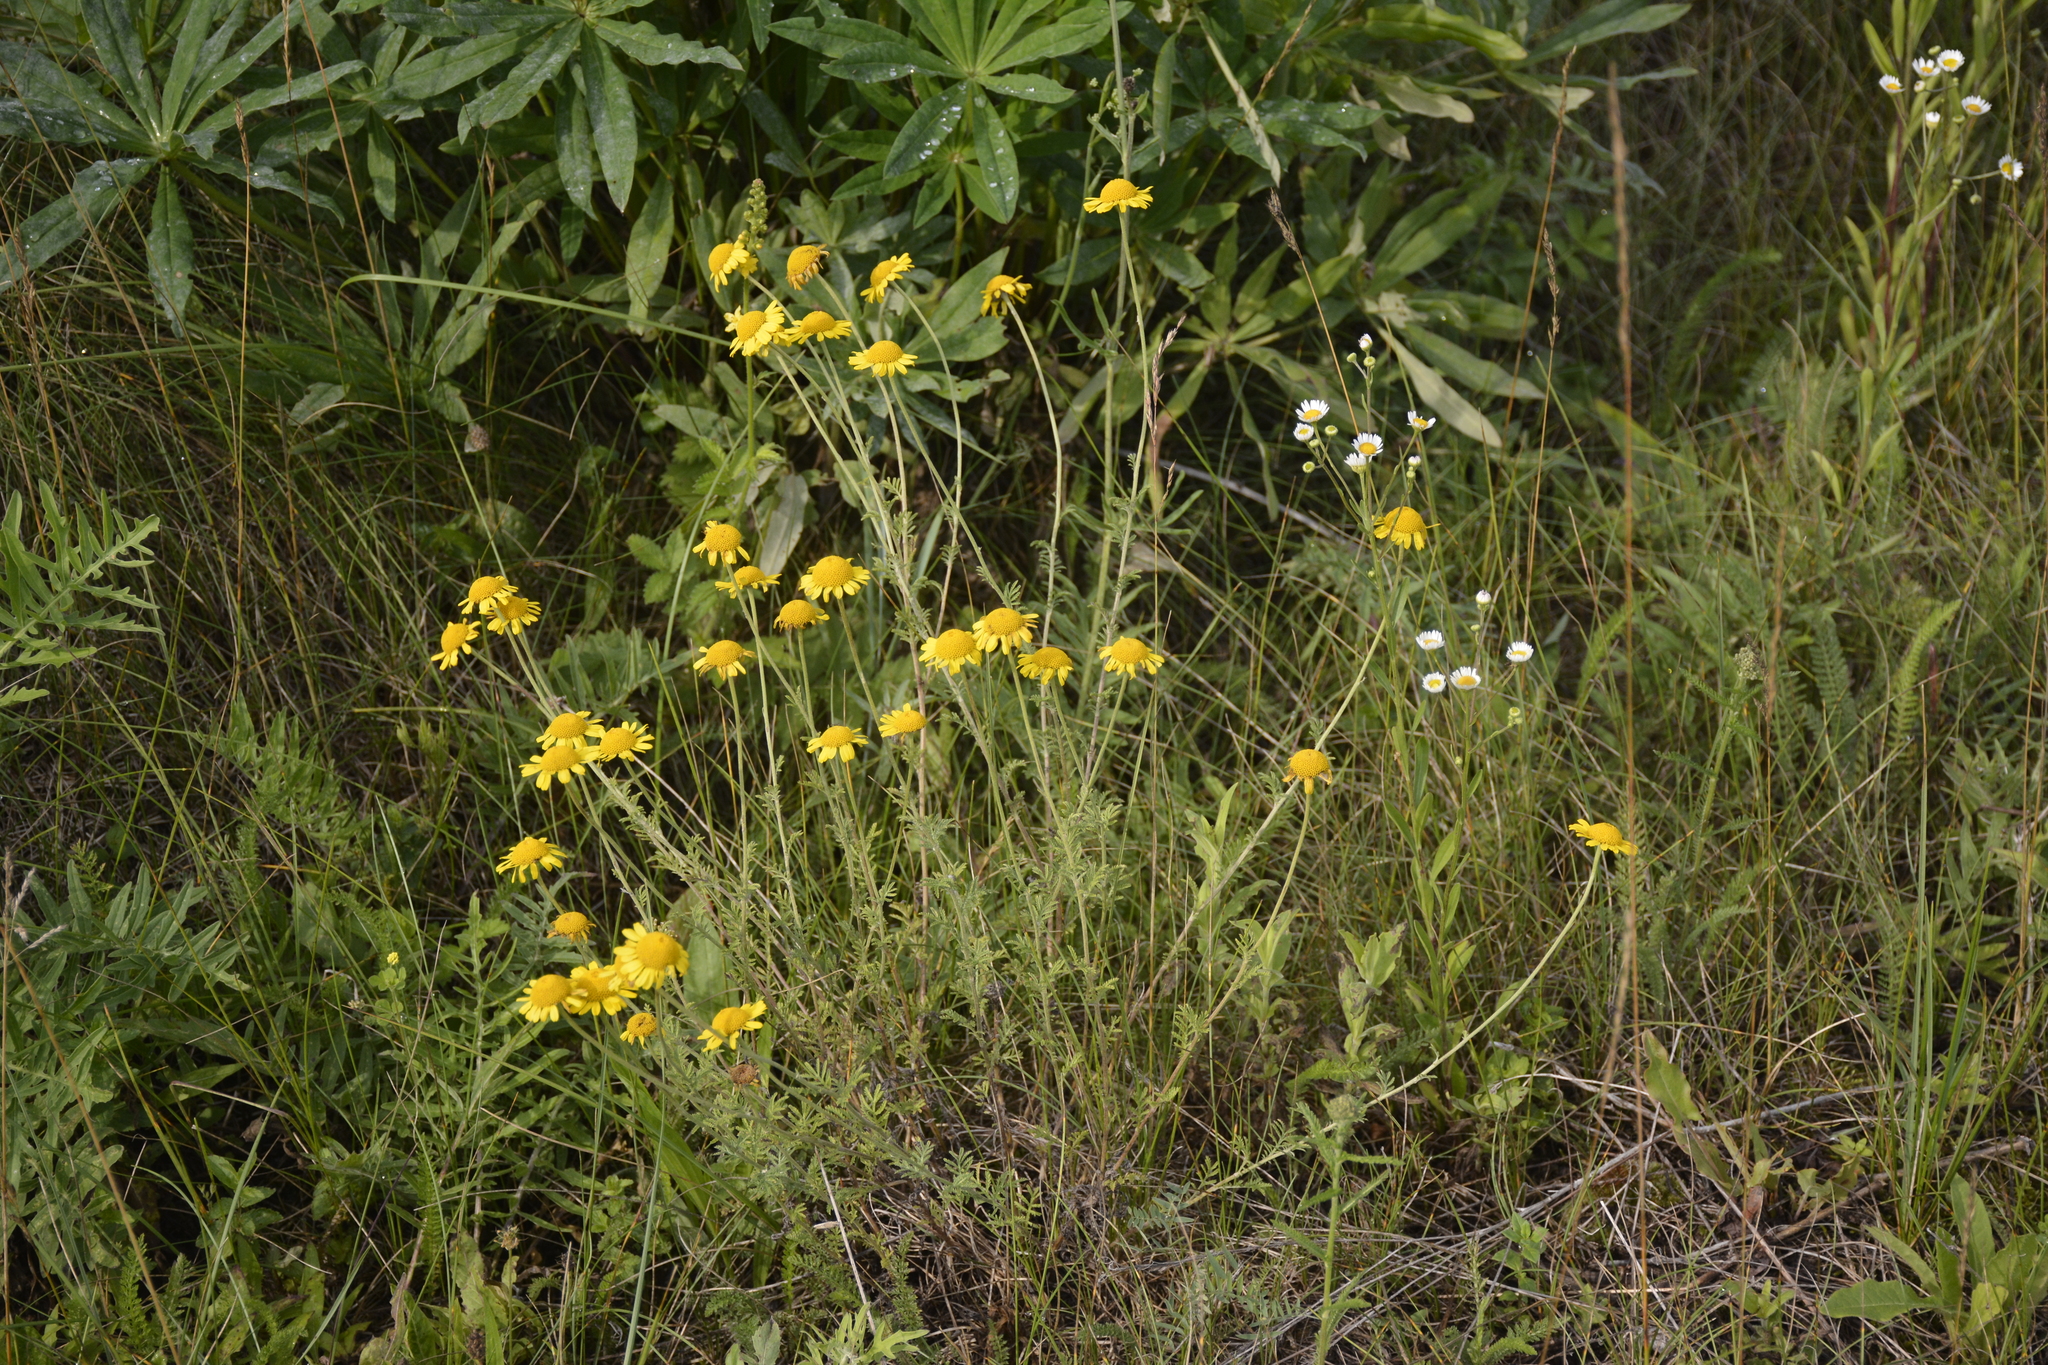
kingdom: Plantae
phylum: Tracheophyta
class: Magnoliopsida
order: Asterales
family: Asteraceae
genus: Cota
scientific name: Cota tinctoria
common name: Golden chamomile
